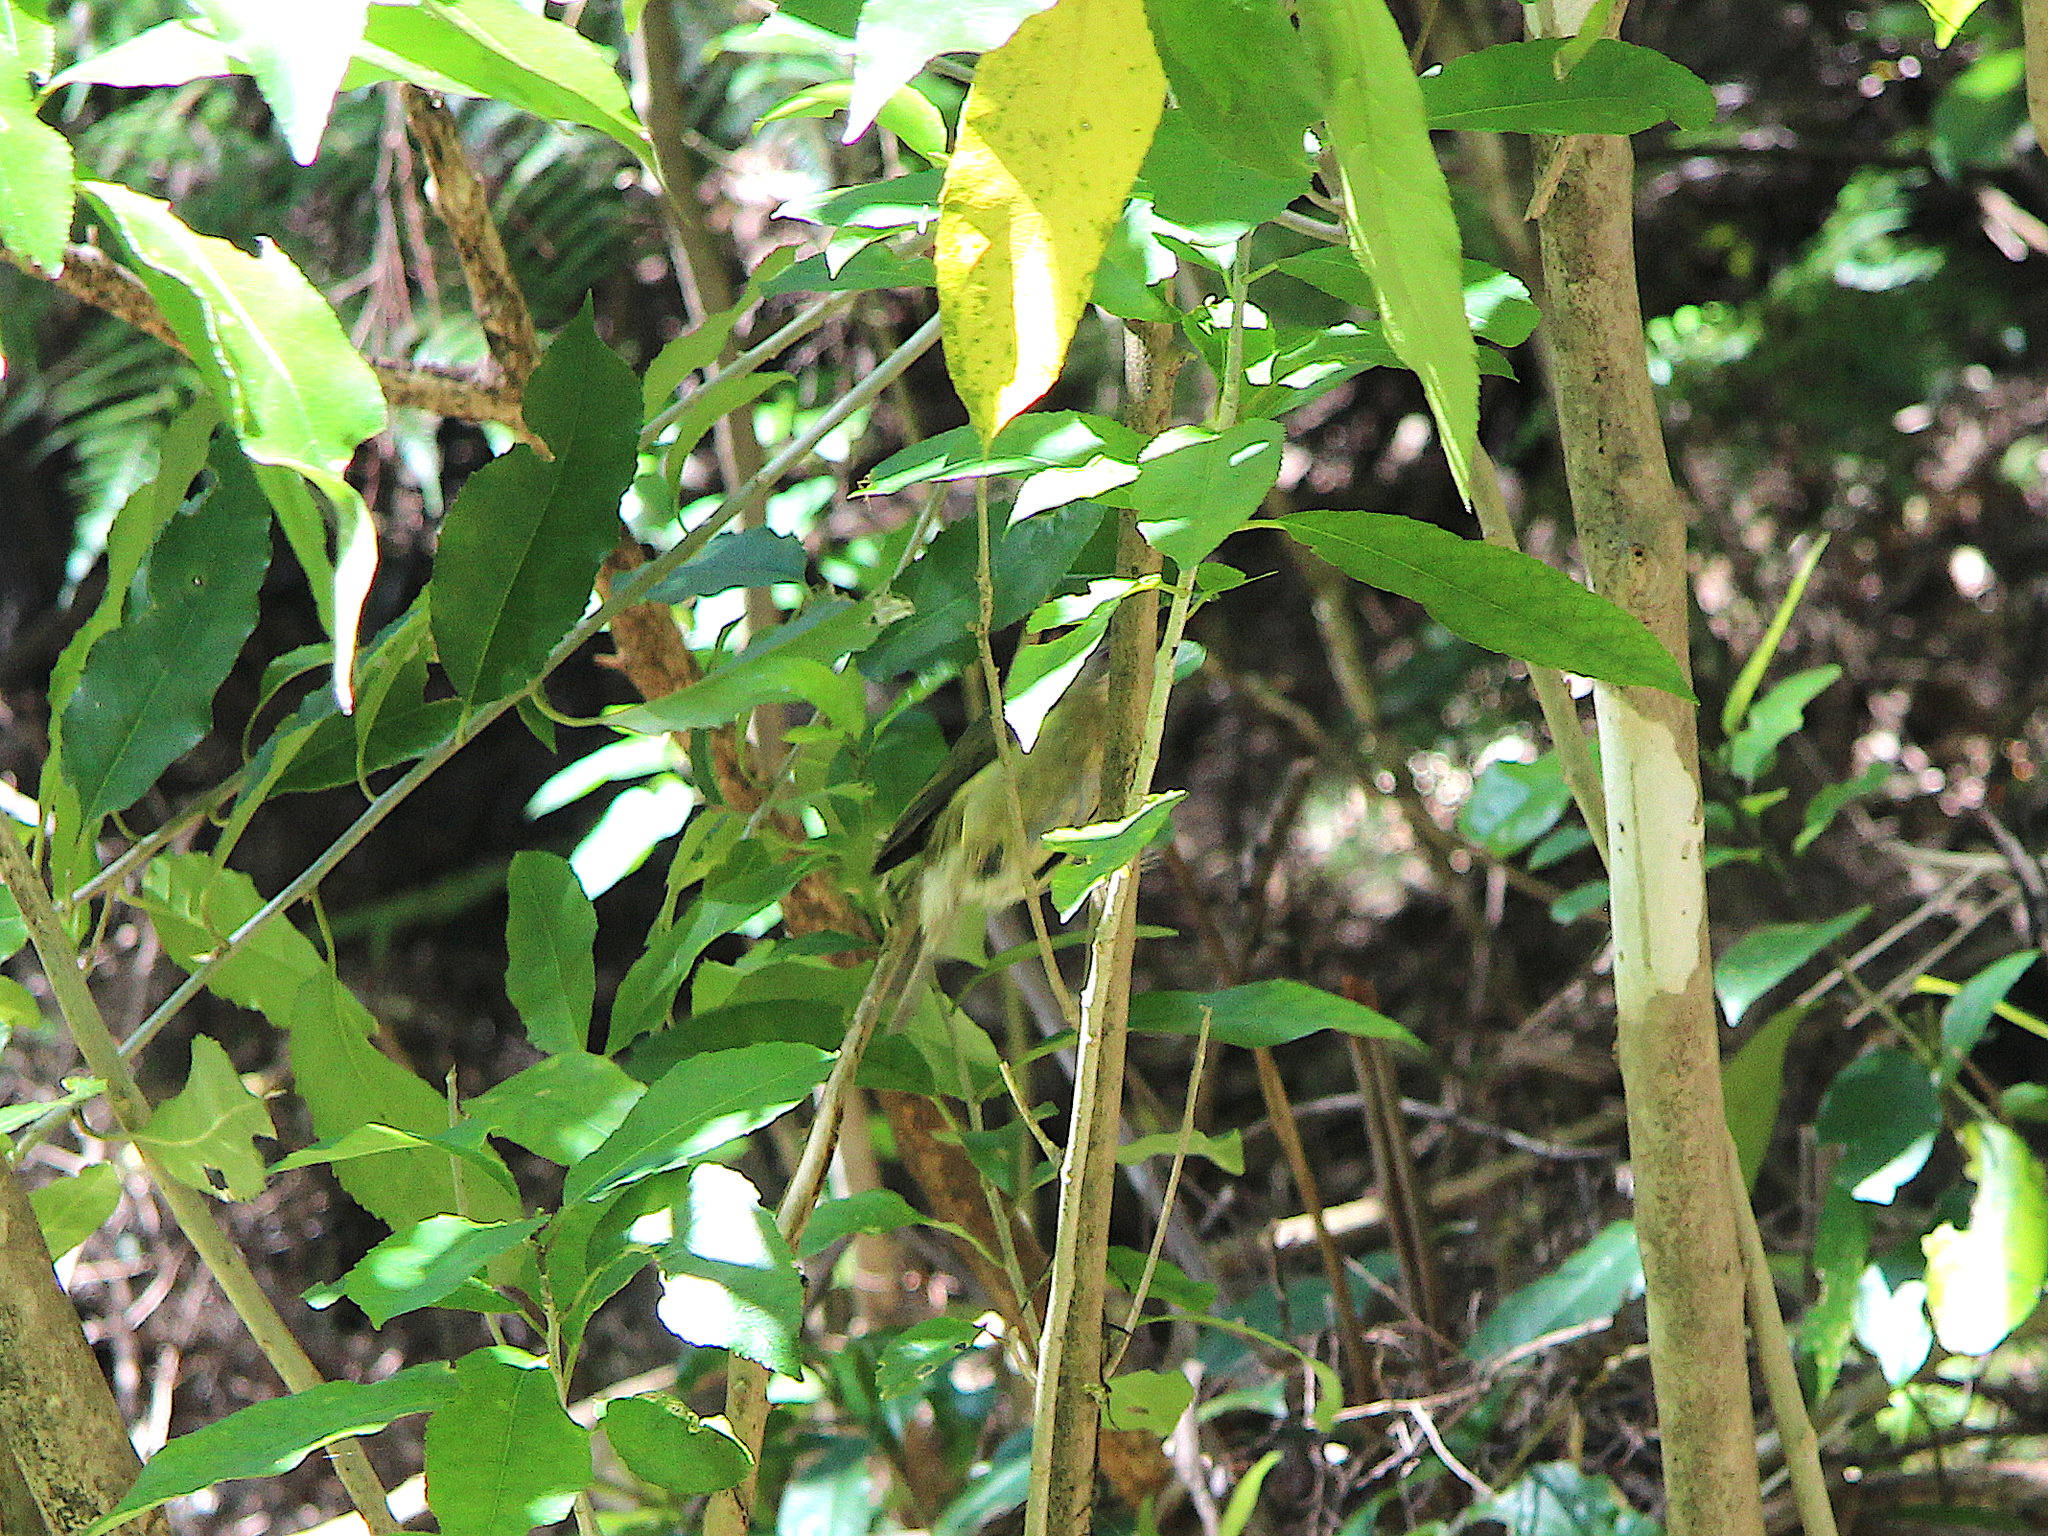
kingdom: Animalia
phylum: Chordata
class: Aves
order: Passeriformes
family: Meliphagidae
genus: Anthornis
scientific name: Anthornis melanura
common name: New zealand bellbird
